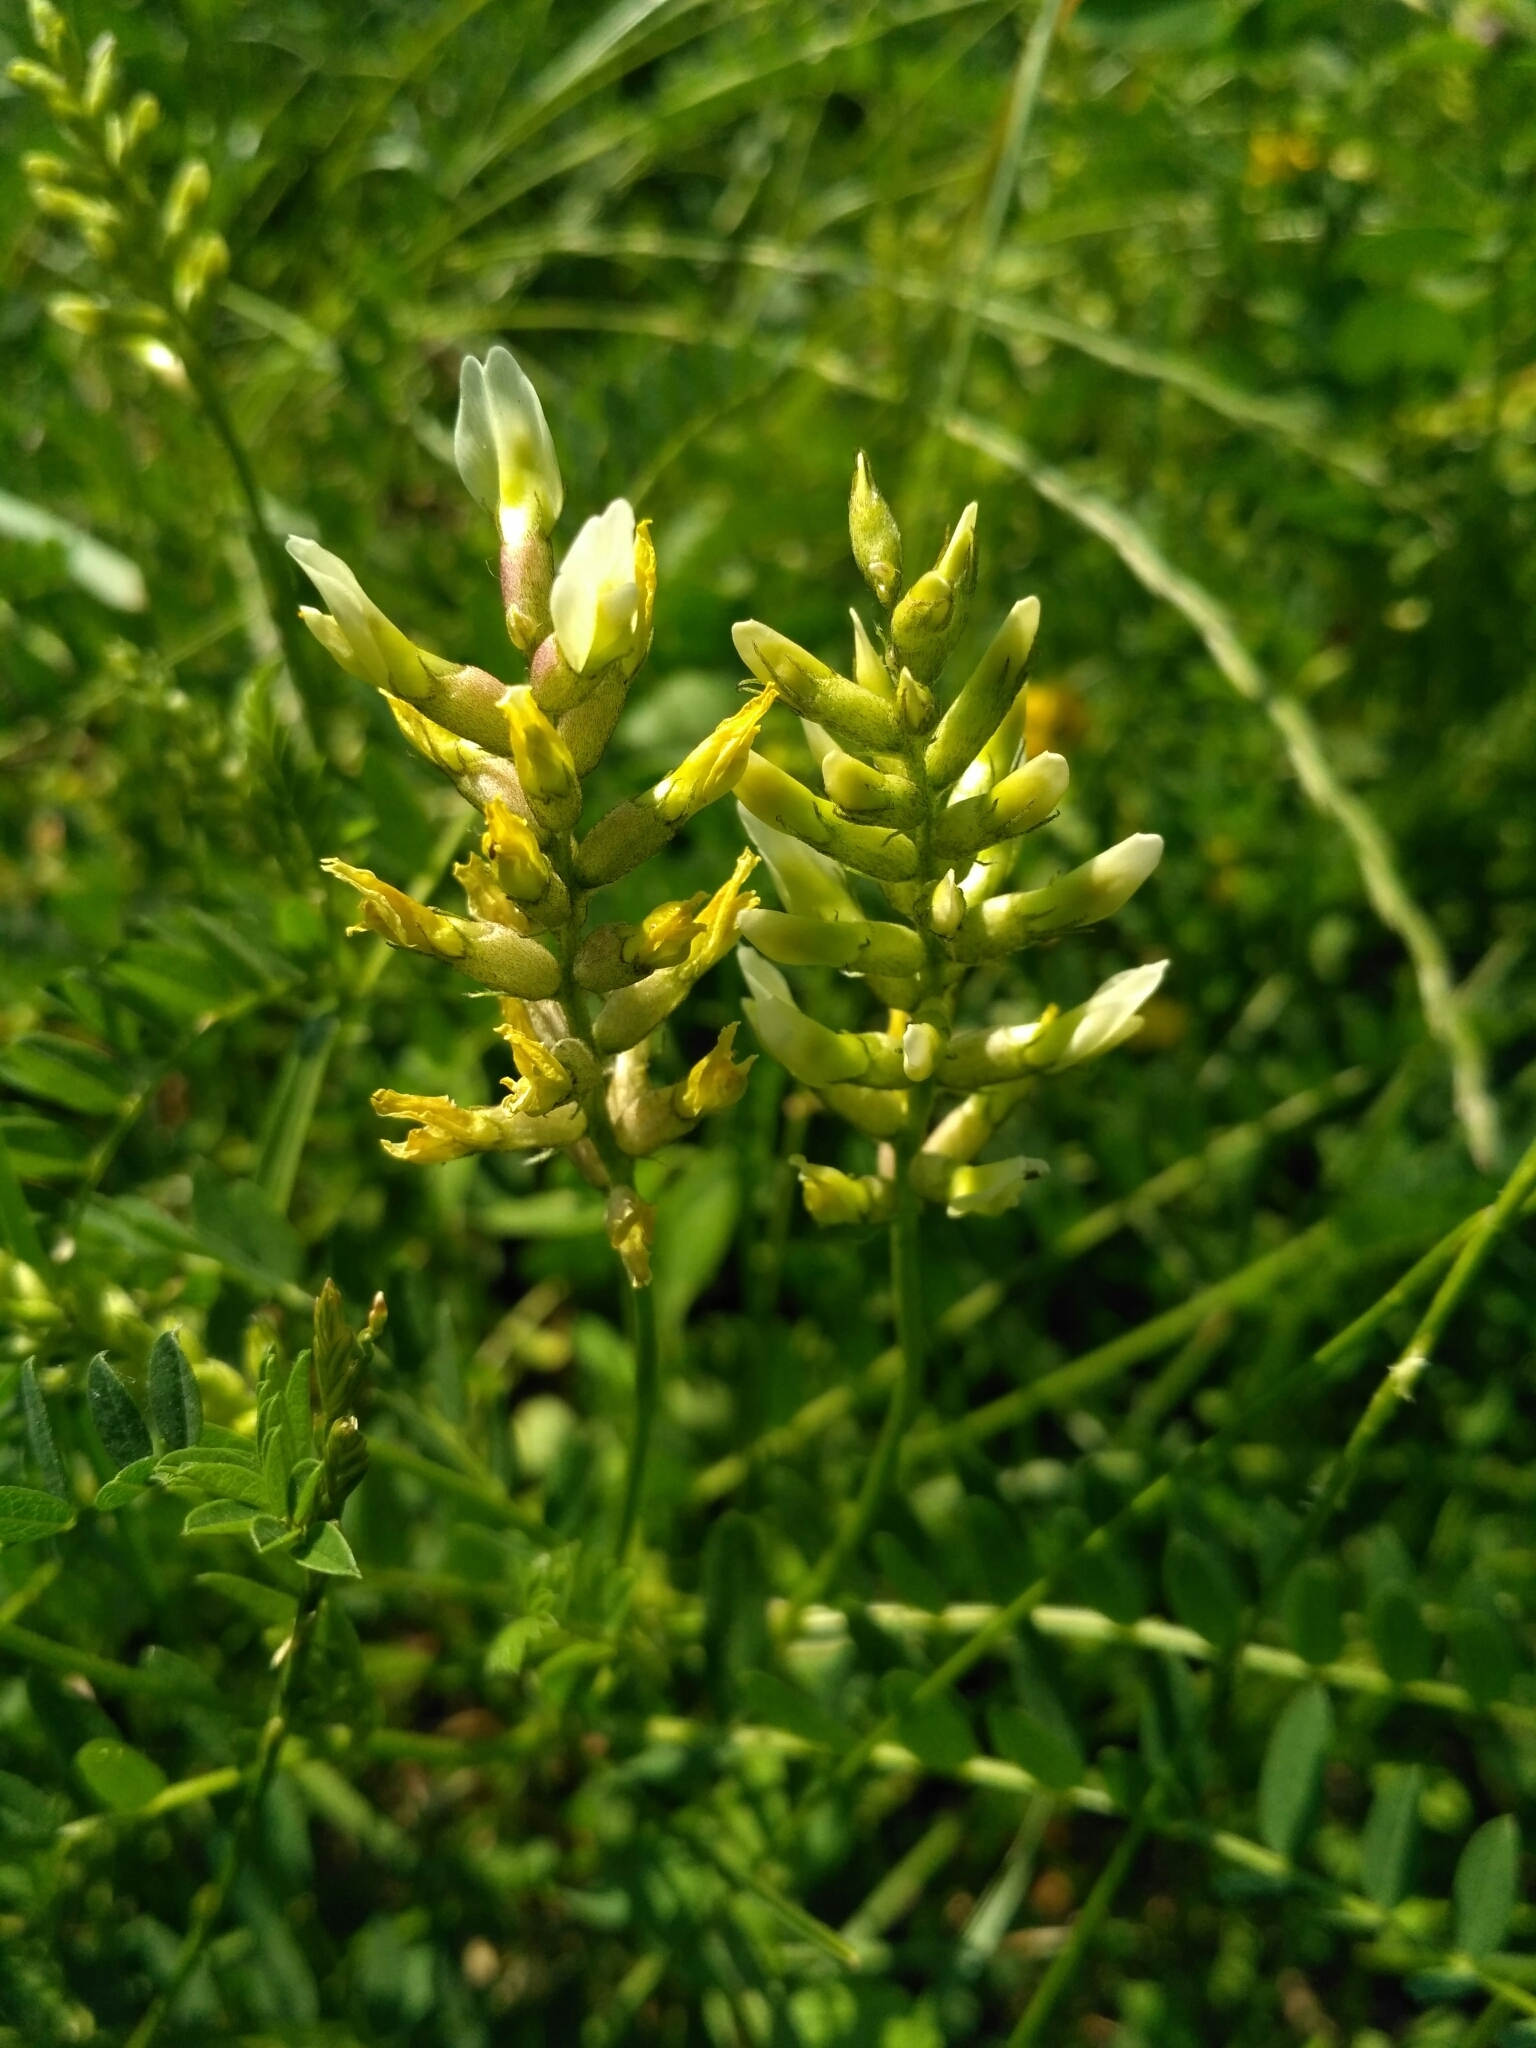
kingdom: Plantae
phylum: Tracheophyta
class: Magnoliopsida
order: Fabales
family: Fabaceae
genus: Astragalus
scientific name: Astragalus cicer
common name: Chick-pea milk-vetch
